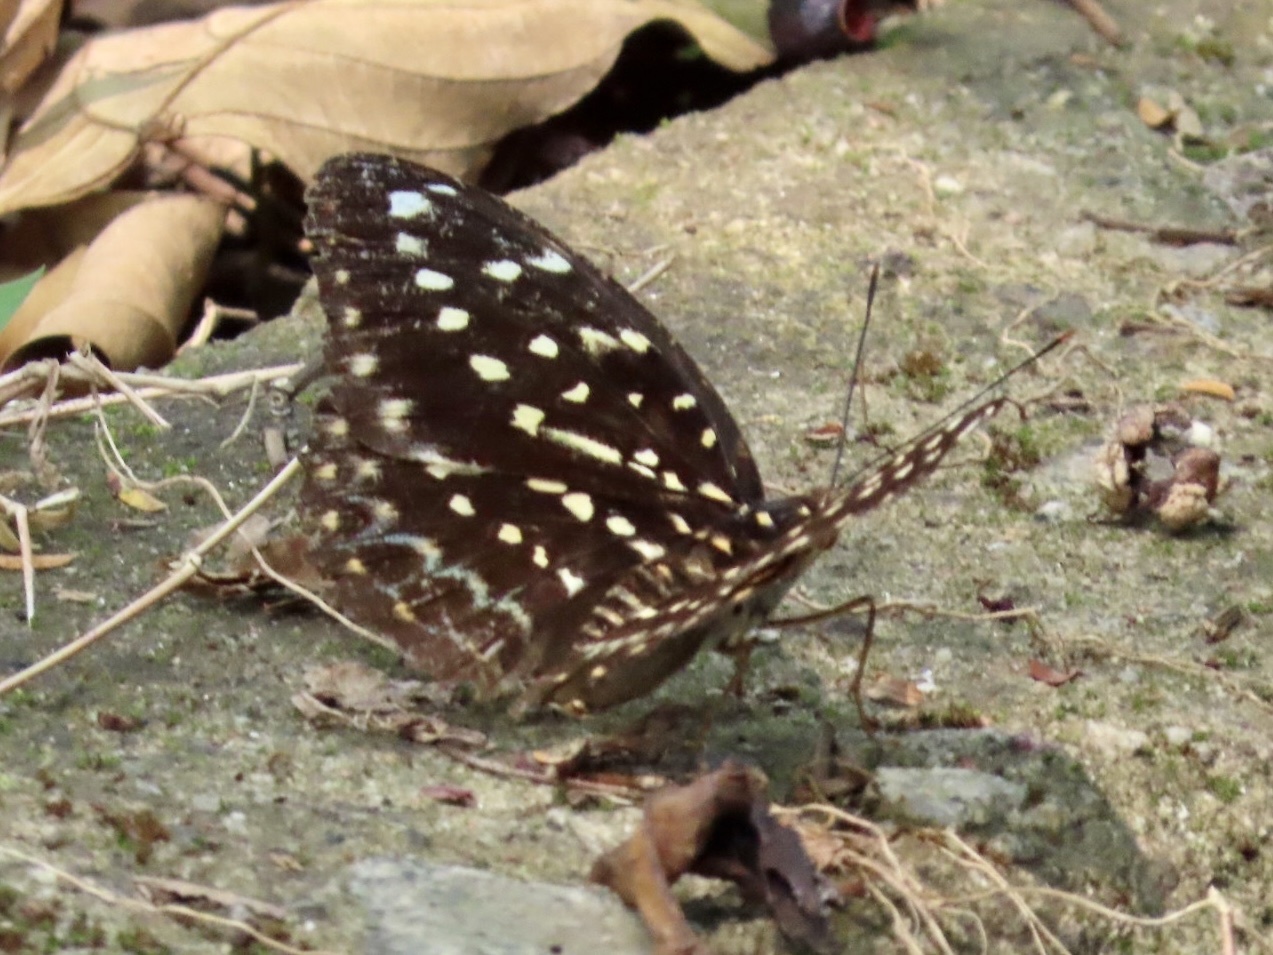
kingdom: Animalia
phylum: Arthropoda
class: Insecta
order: Lepidoptera
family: Nymphalidae
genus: Lexias
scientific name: Lexias pardalis
